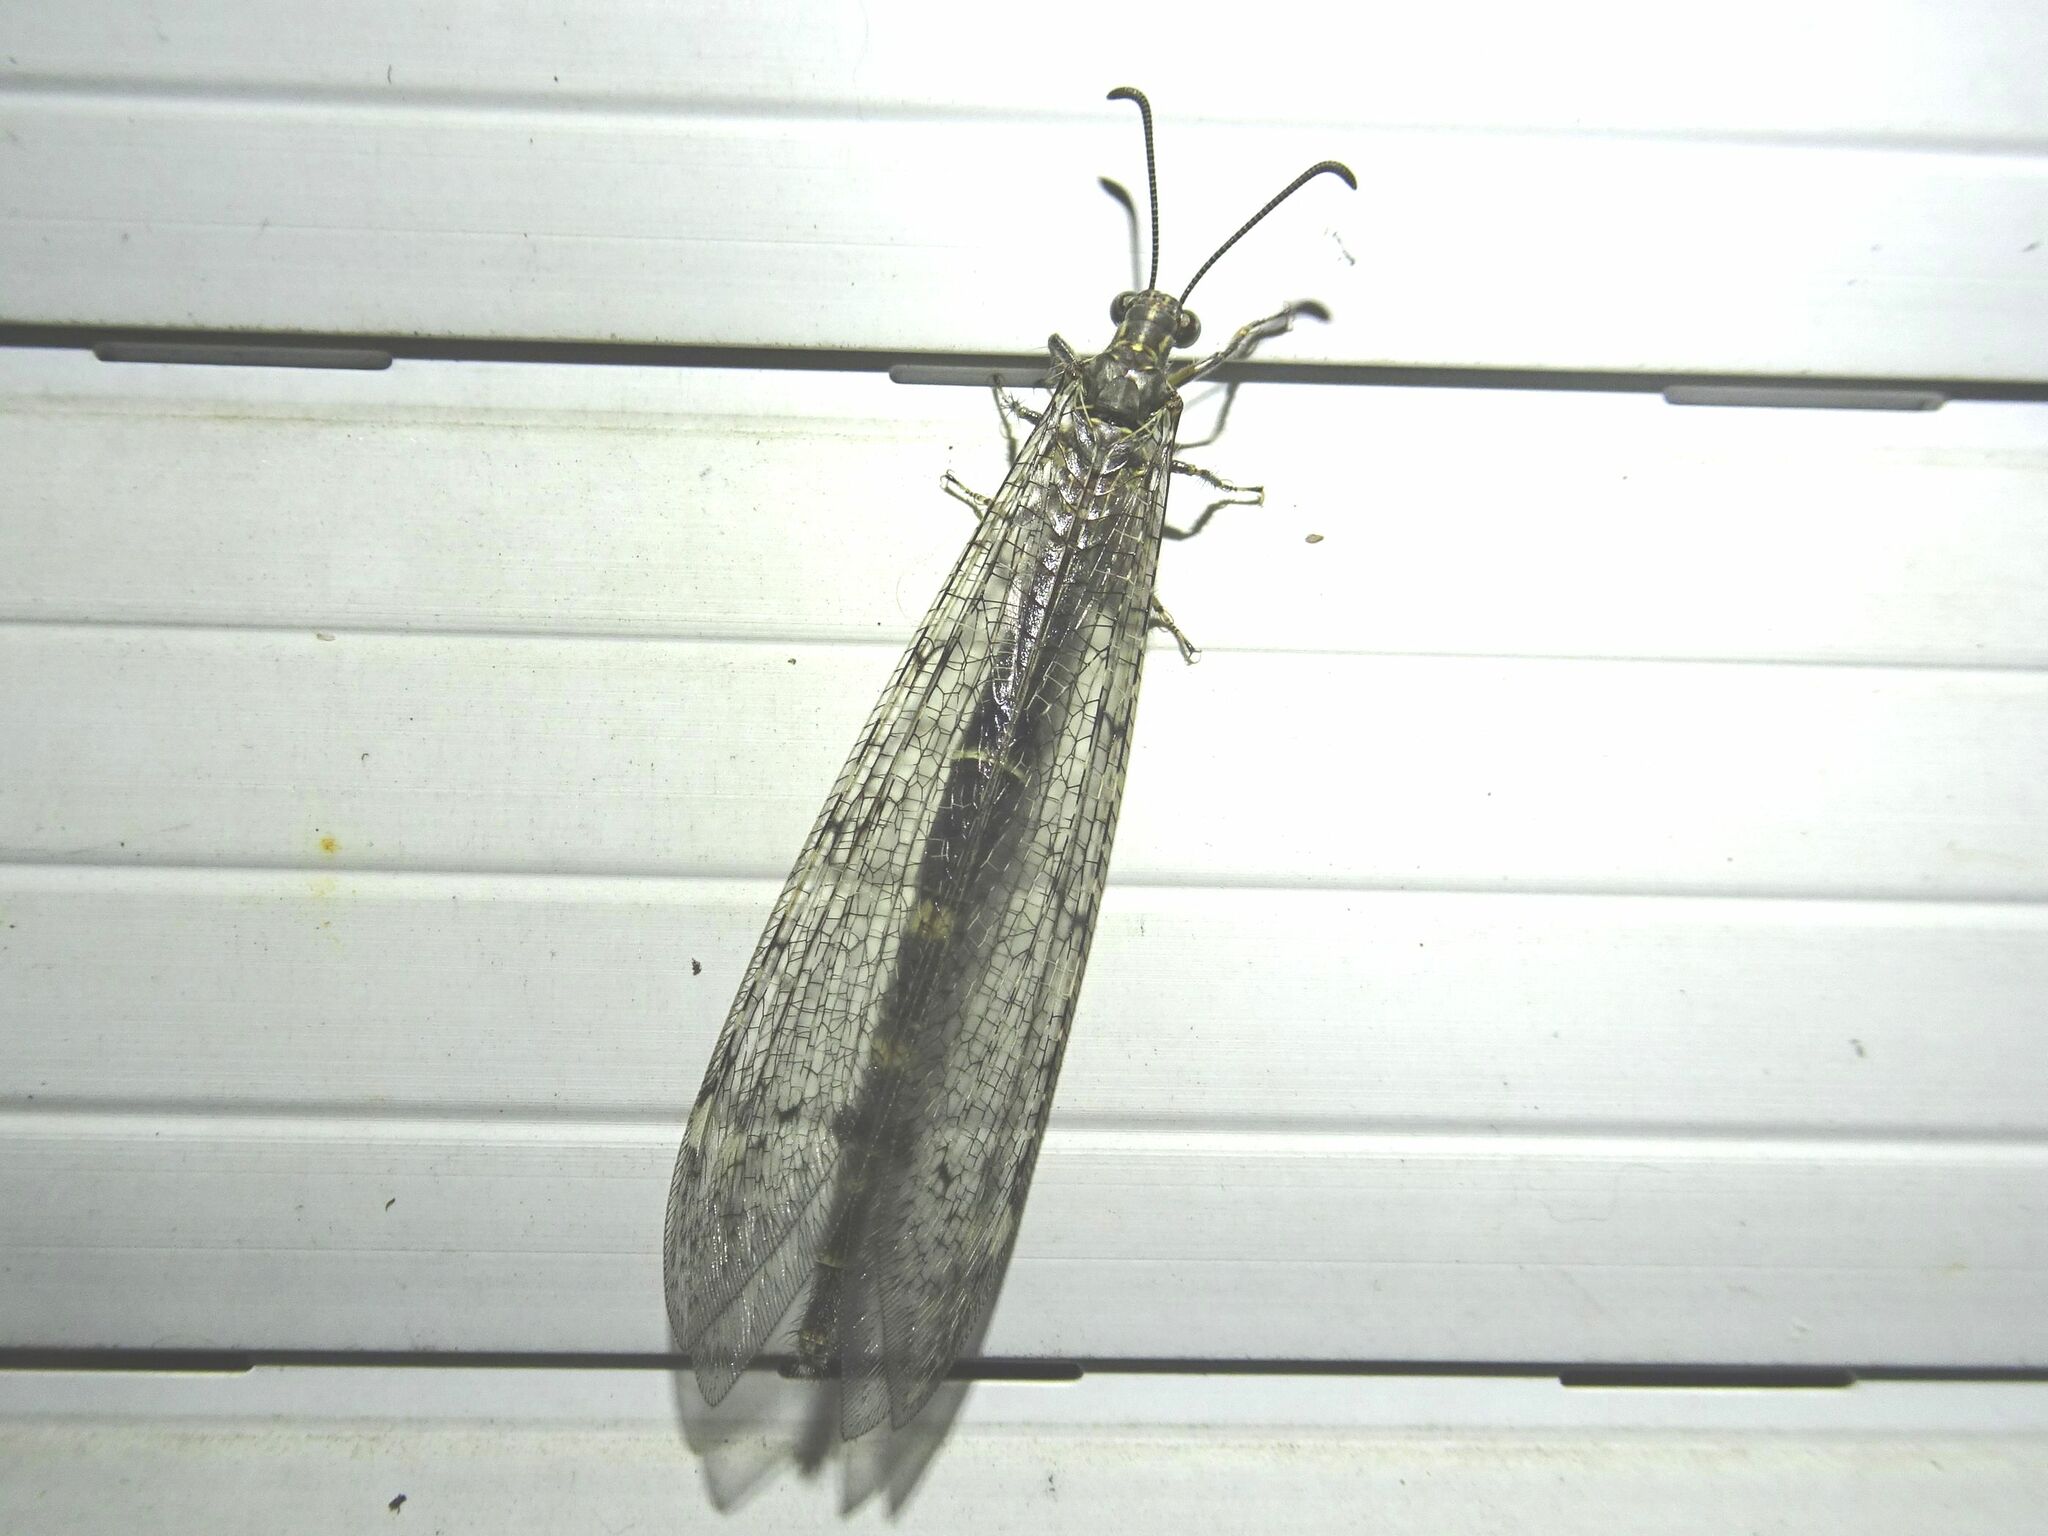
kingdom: Animalia
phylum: Arthropoda
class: Insecta
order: Neuroptera
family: Myrmeleontidae
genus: Distoleon
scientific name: Distoleon tetragrammicus
